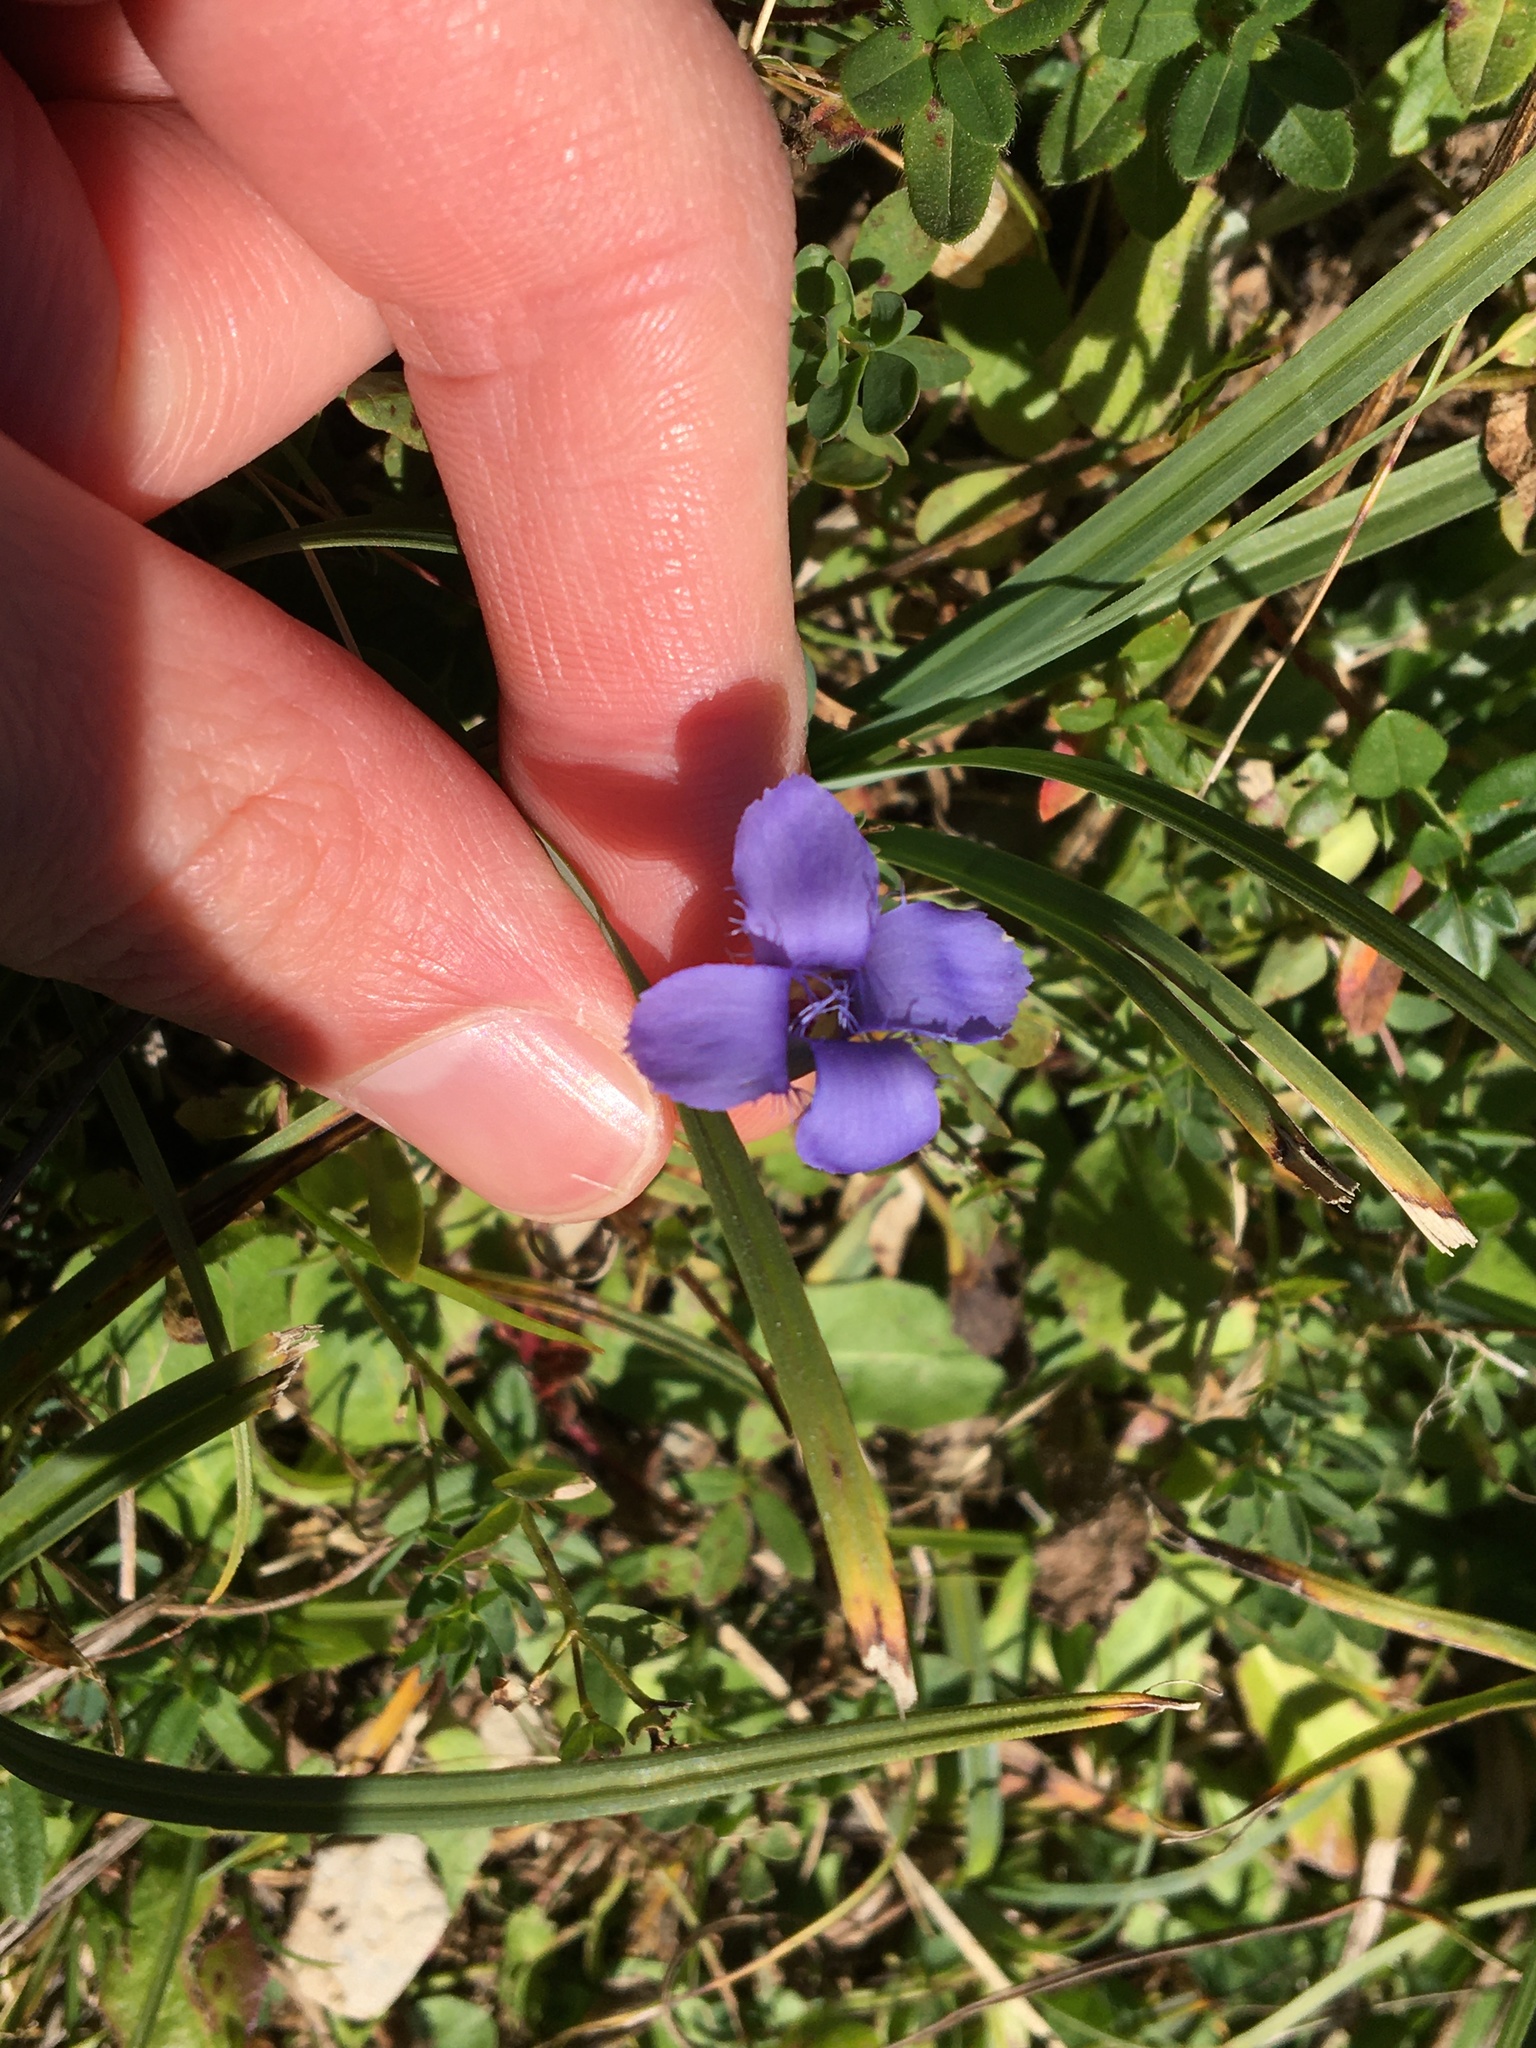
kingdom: Plantae
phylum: Tracheophyta
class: Magnoliopsida
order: Gentianales
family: Gentianaceae
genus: Gentianopsis
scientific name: Gentianopsis ciliata
